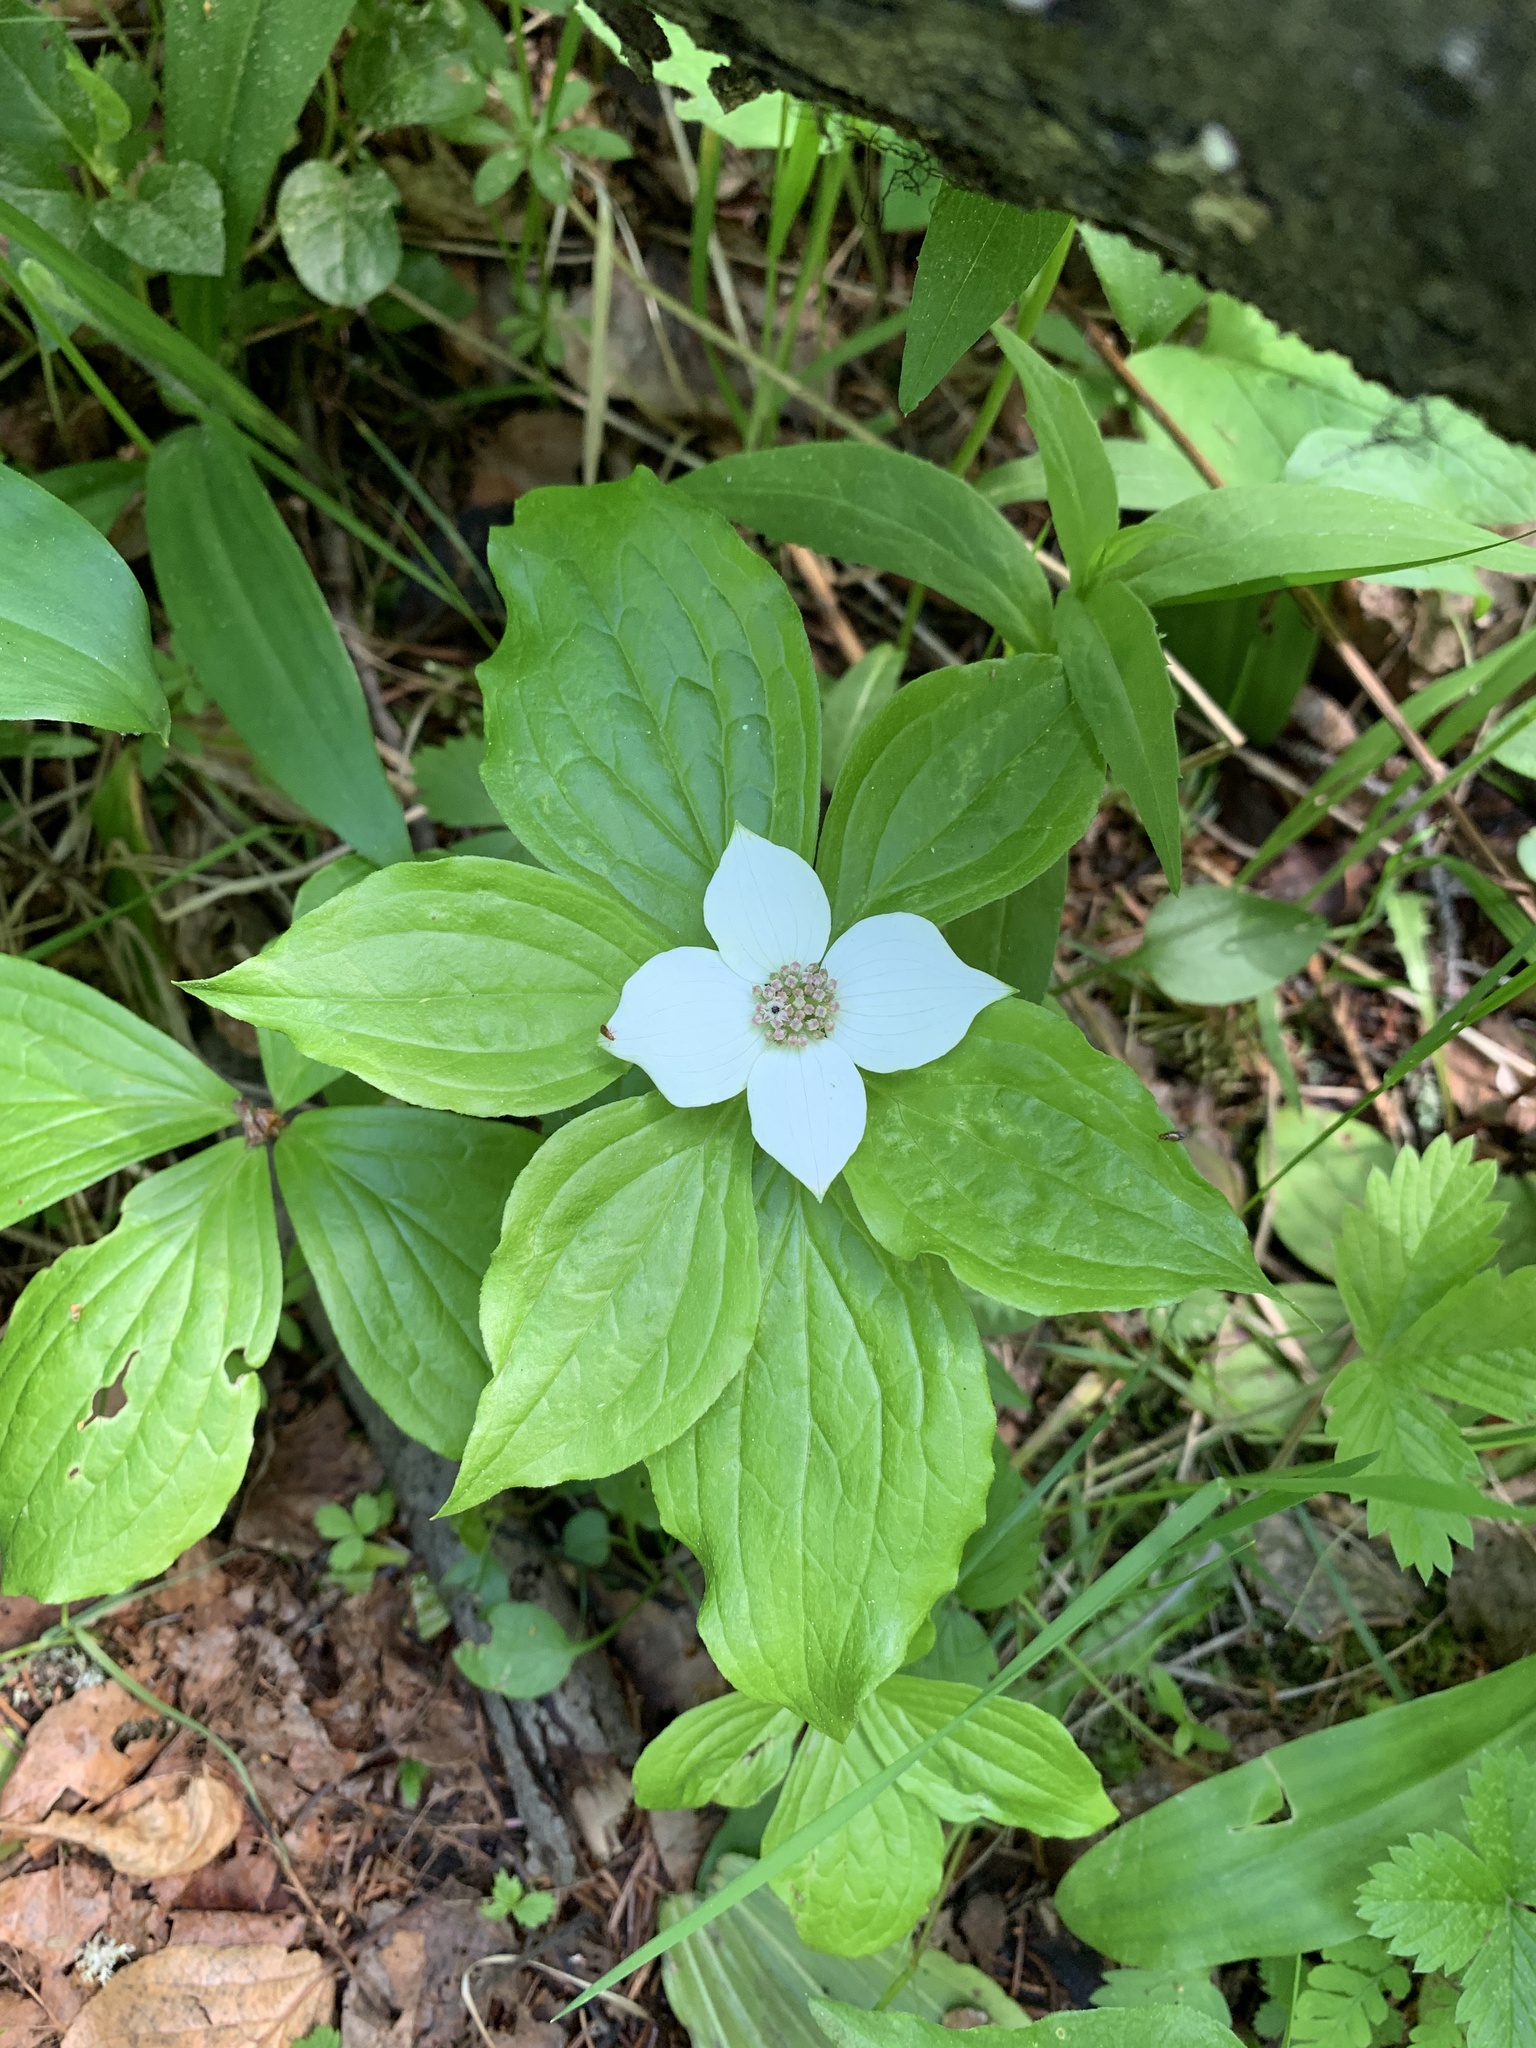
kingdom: Plantae
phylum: Tracheophyta
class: Magnoliopsida
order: Cornales
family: Cornaceae
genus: Cornus
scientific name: Cornus unalaschkensis
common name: Alaska bunchberry
